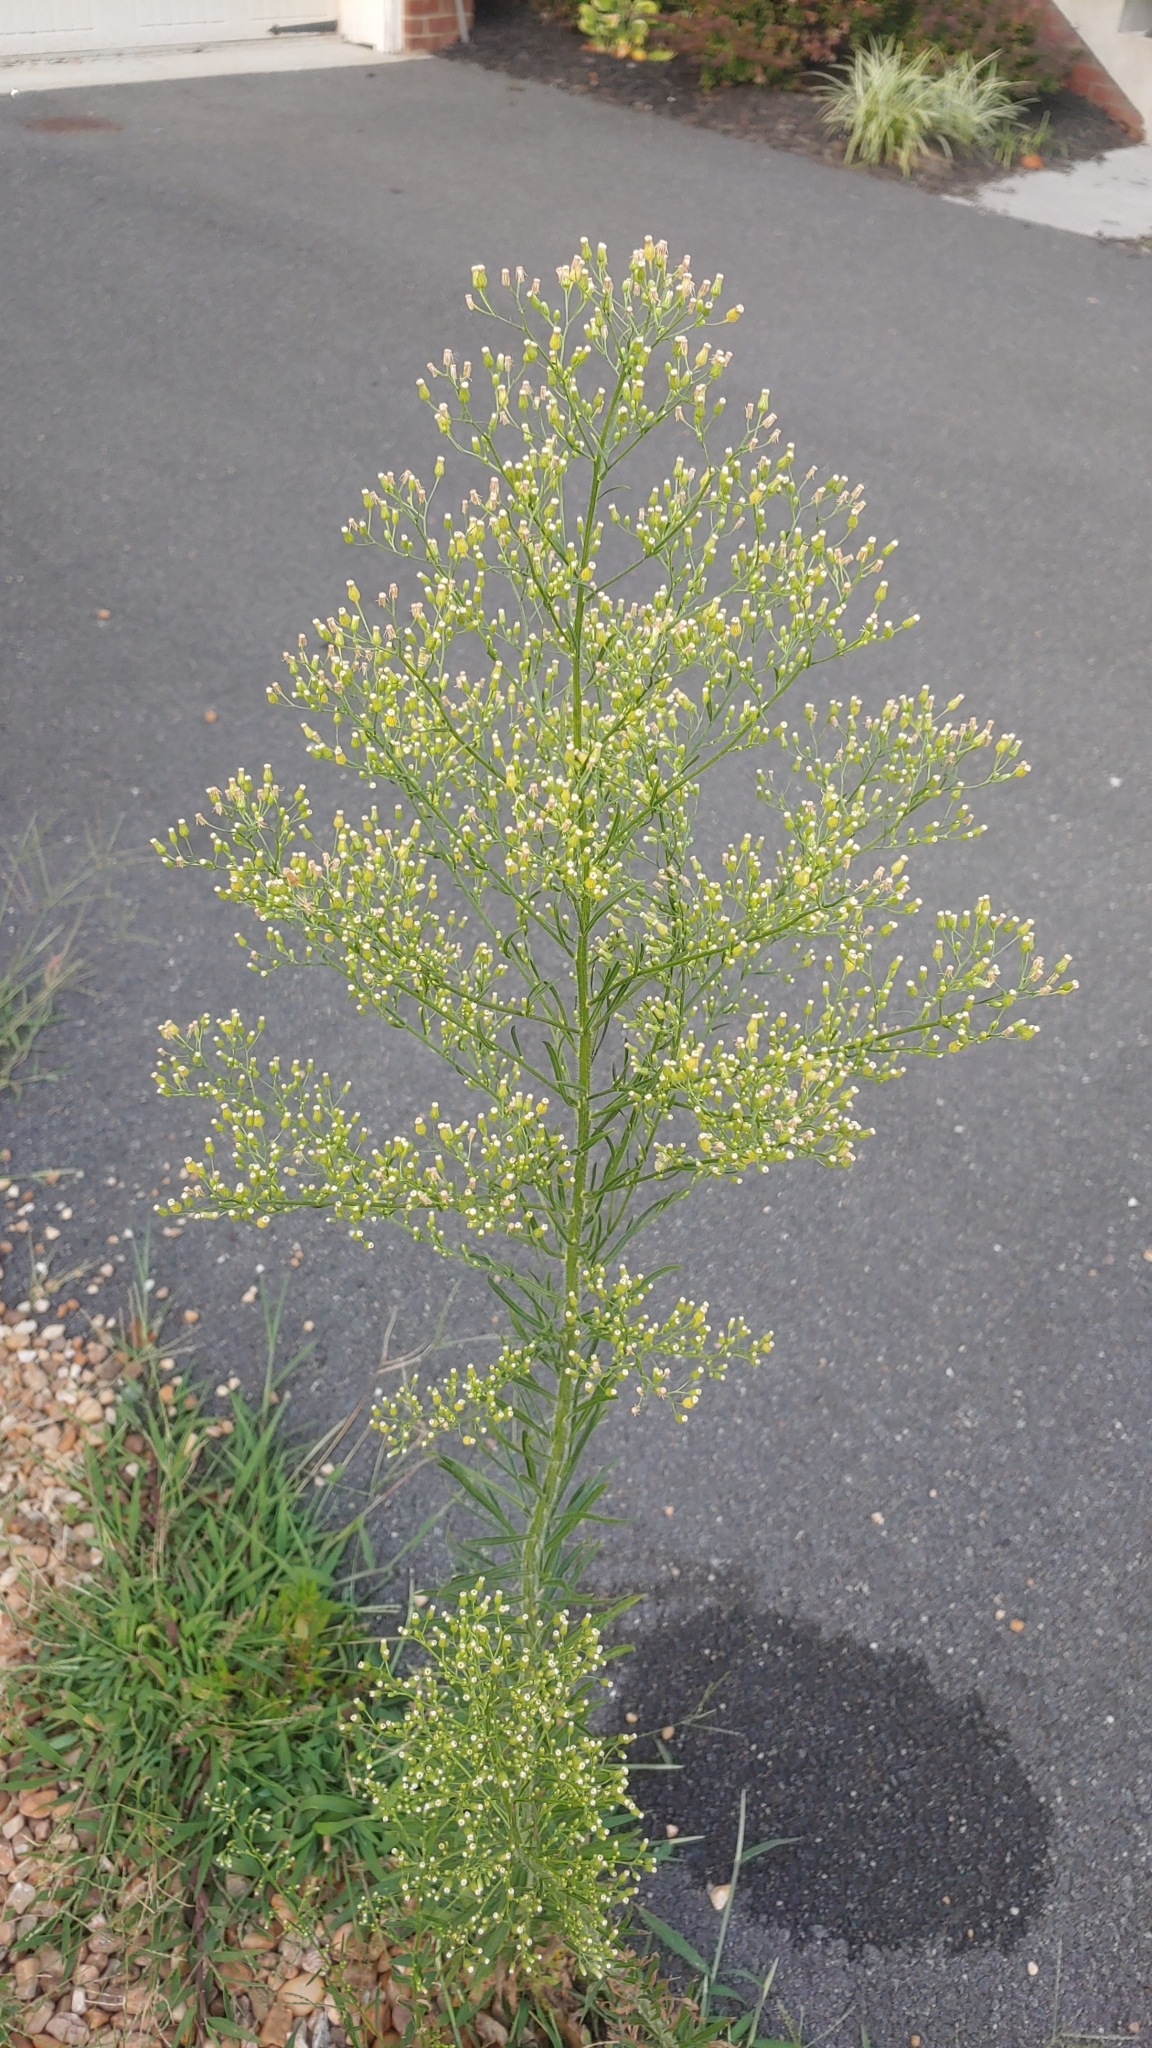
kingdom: Plantae
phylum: Tracheophyta
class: Magnoliopsida
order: Asterales
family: Asteraceae
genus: Erigeron
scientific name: Erigeron canadensis
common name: Canadian fleabane
